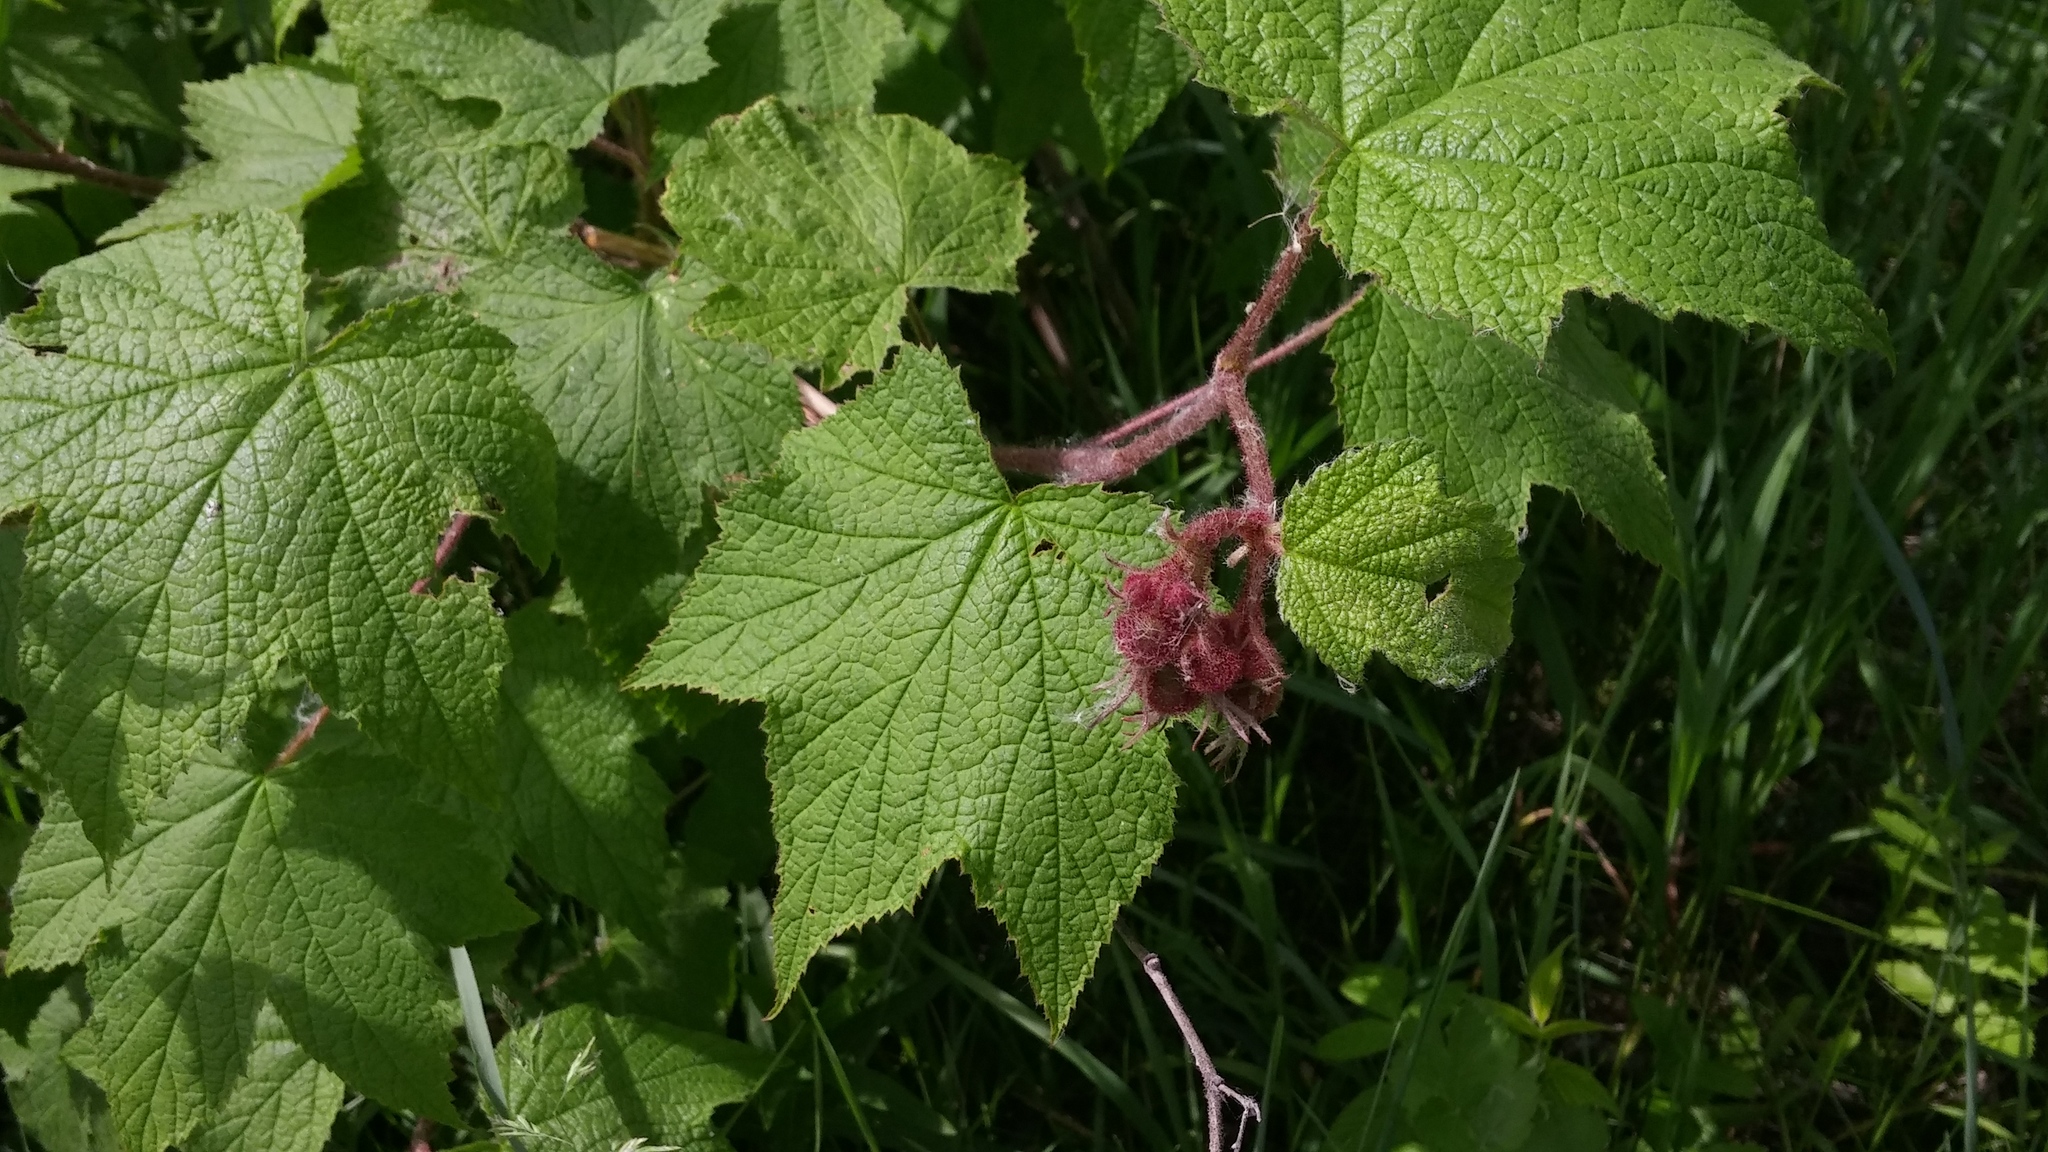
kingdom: Plantae
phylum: Tracheophyta
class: Magnoliopsida
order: Rosales
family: Rosaceae
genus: Rubus
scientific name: Rubus odoratus
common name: Purple-flowered raspberry
